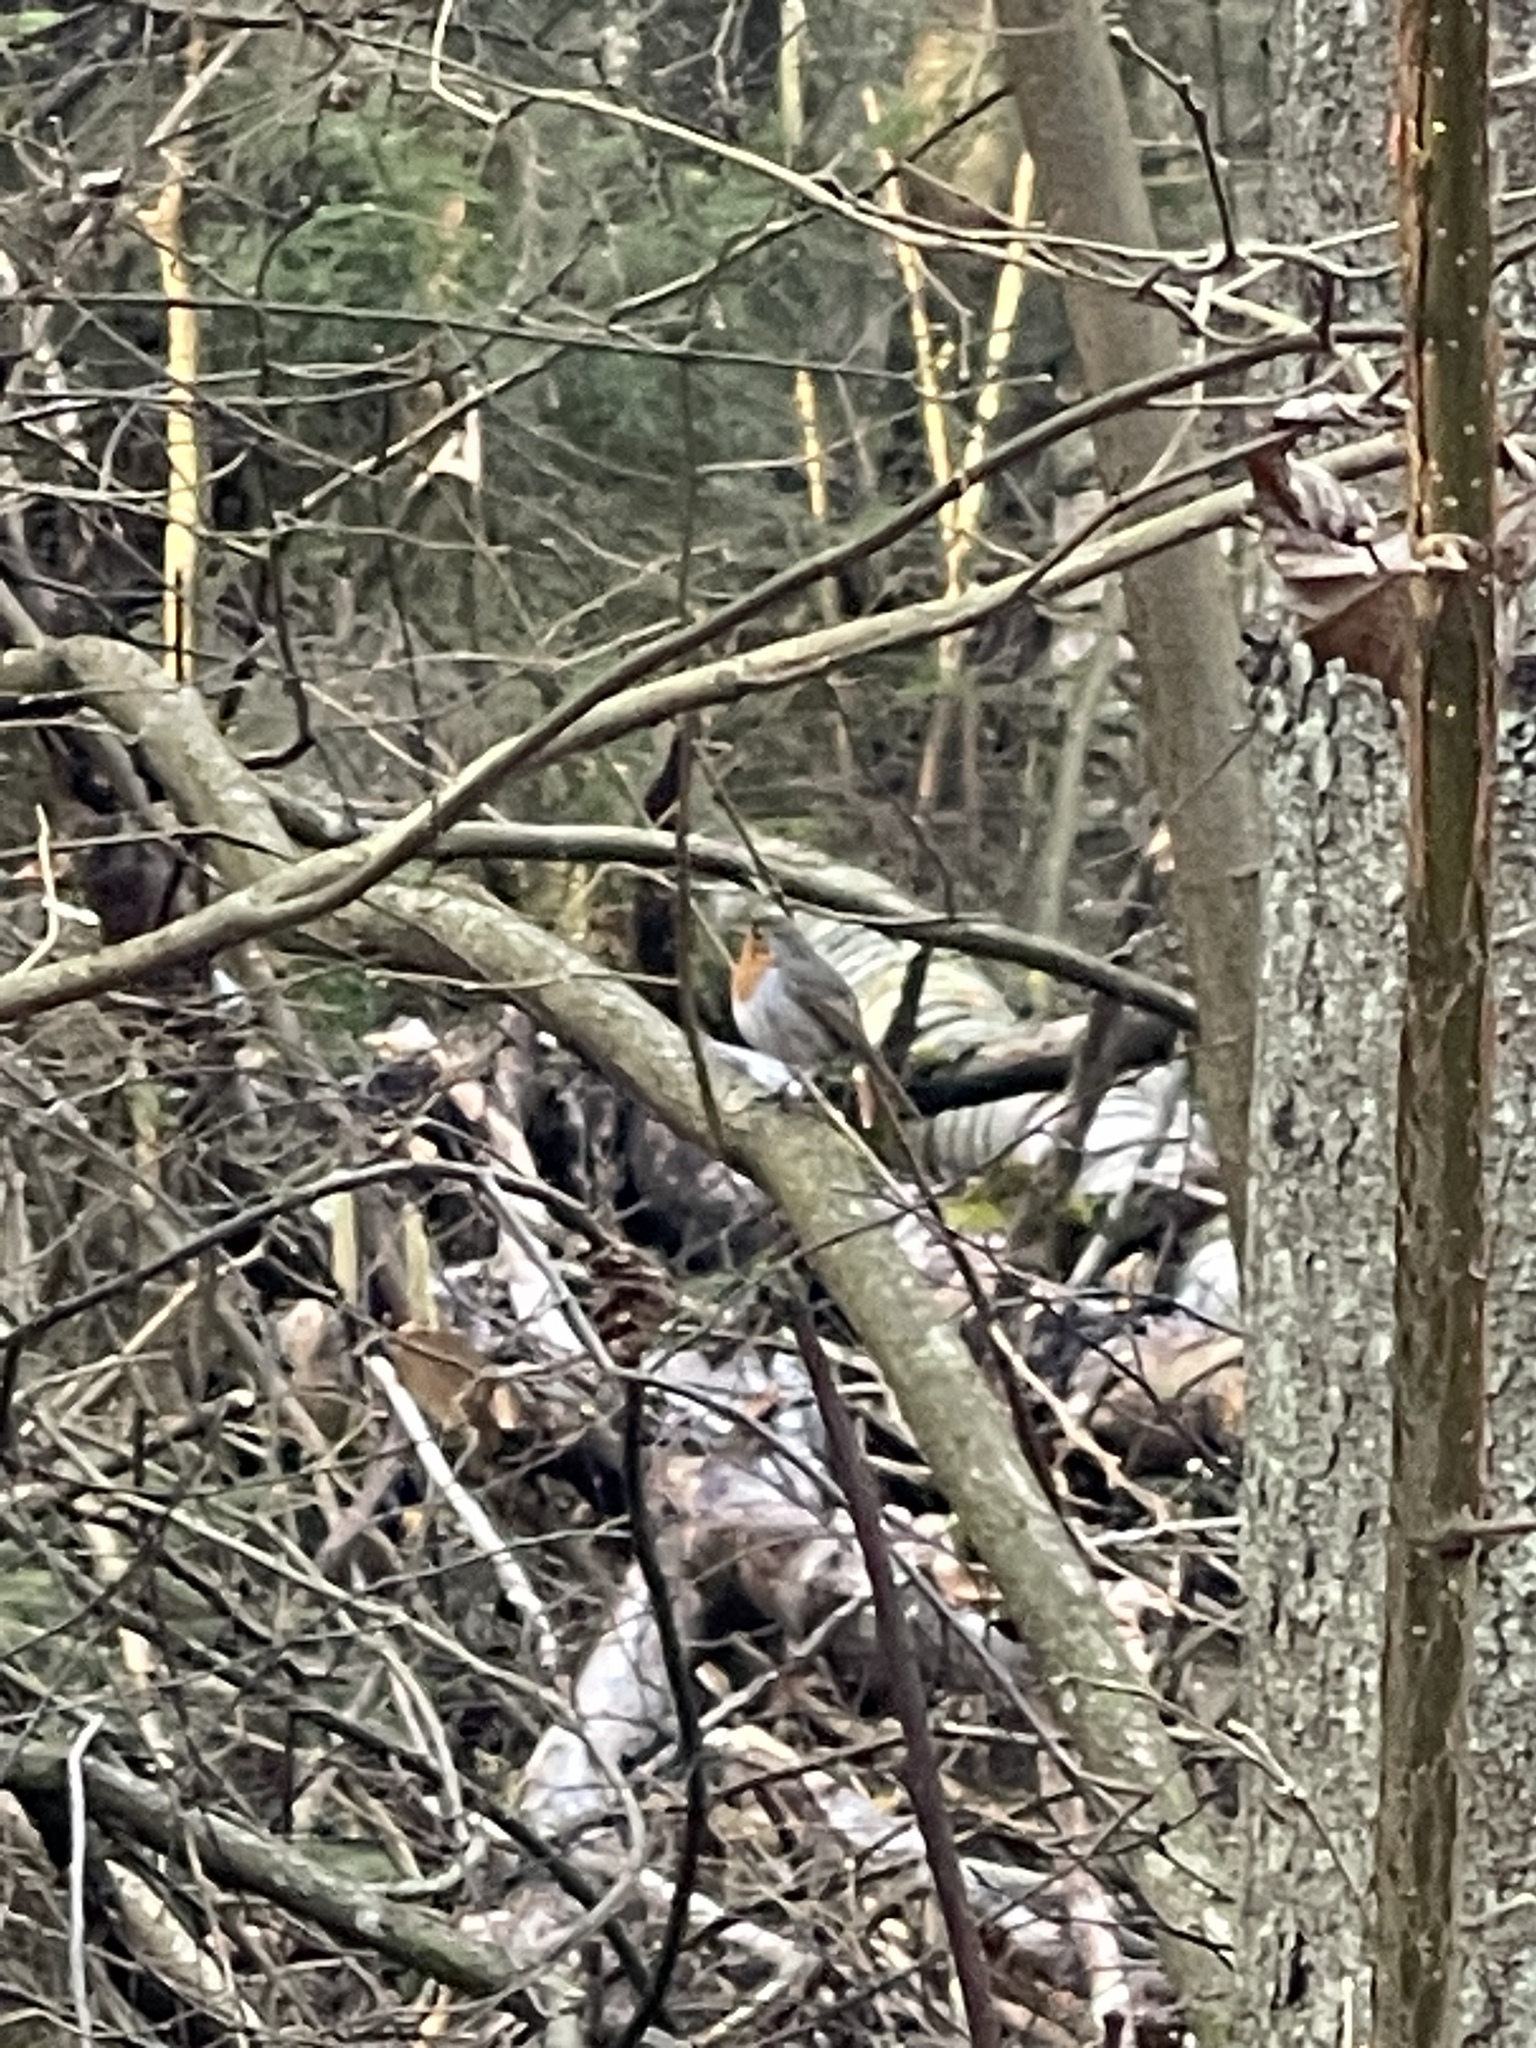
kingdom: Animalia
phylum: Chordata
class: Aves
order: Passeriformes
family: Muscicapidae
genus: Erithacus
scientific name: Erithacus rubecula
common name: European robin
